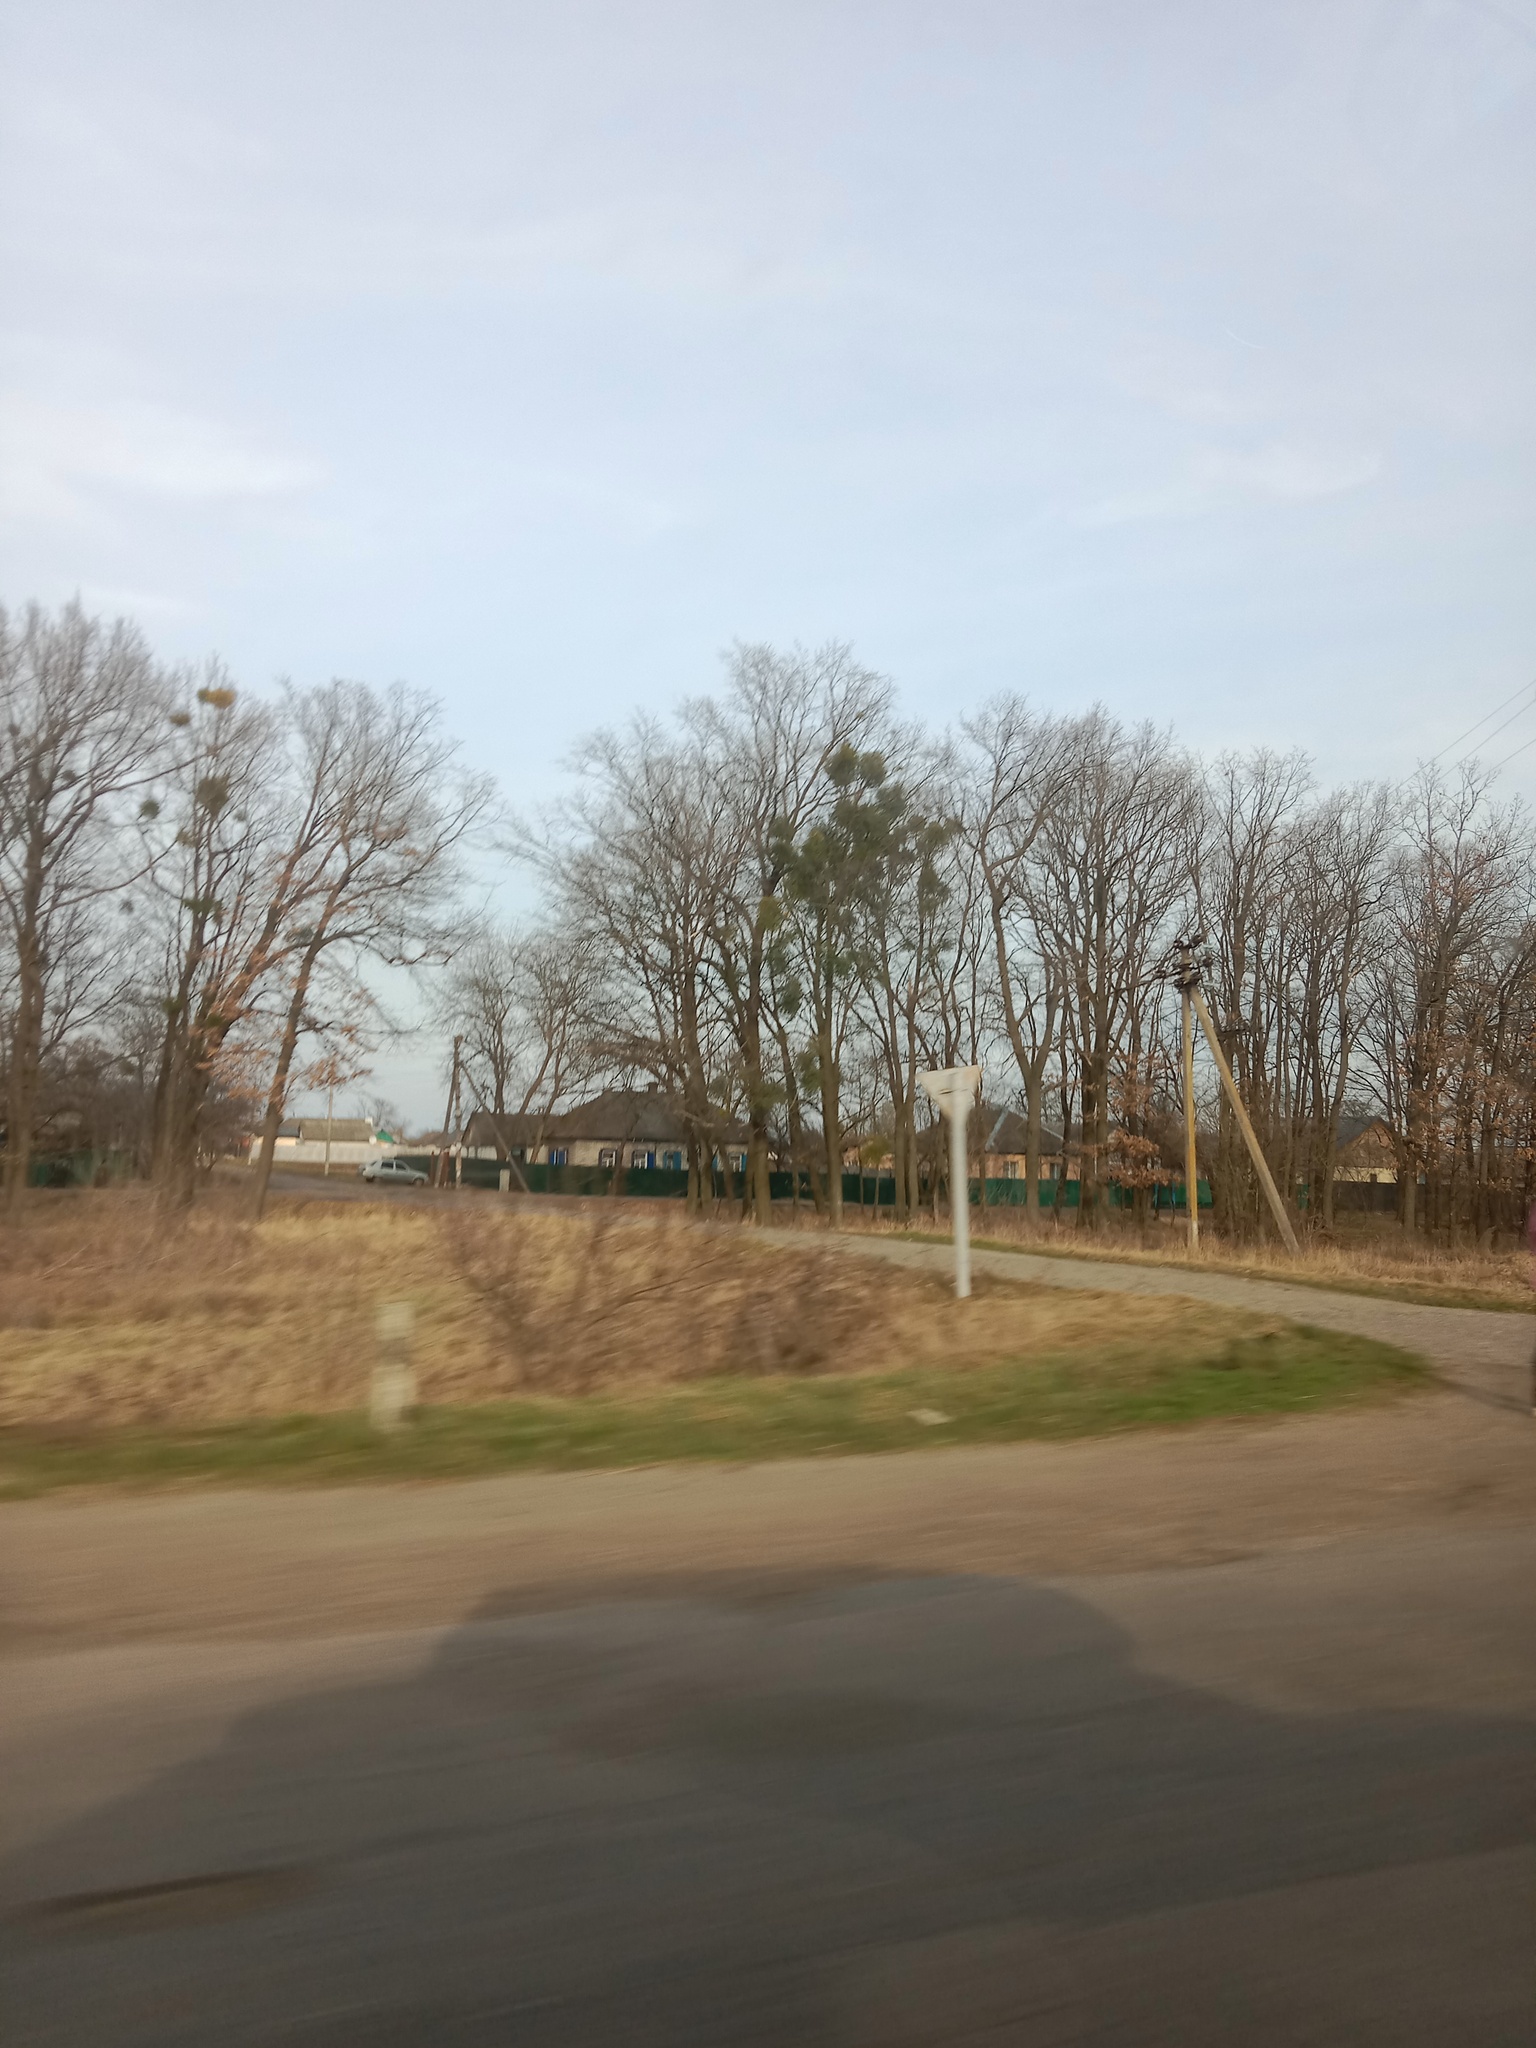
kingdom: Plantae
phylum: Tracheophyta
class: Magnoliopsida
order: Santalales
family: Viscaceae
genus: Viscum
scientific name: Viscum album
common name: Mistletoe
